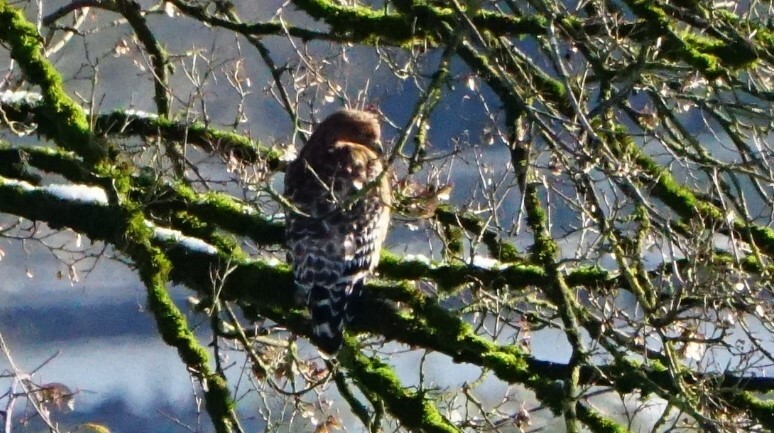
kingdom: Animalia
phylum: Chordata
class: Aves
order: Accipitriformes
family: Accipitridae
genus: Buteo
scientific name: Buteo lineatus
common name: Red-shouldered hawk
